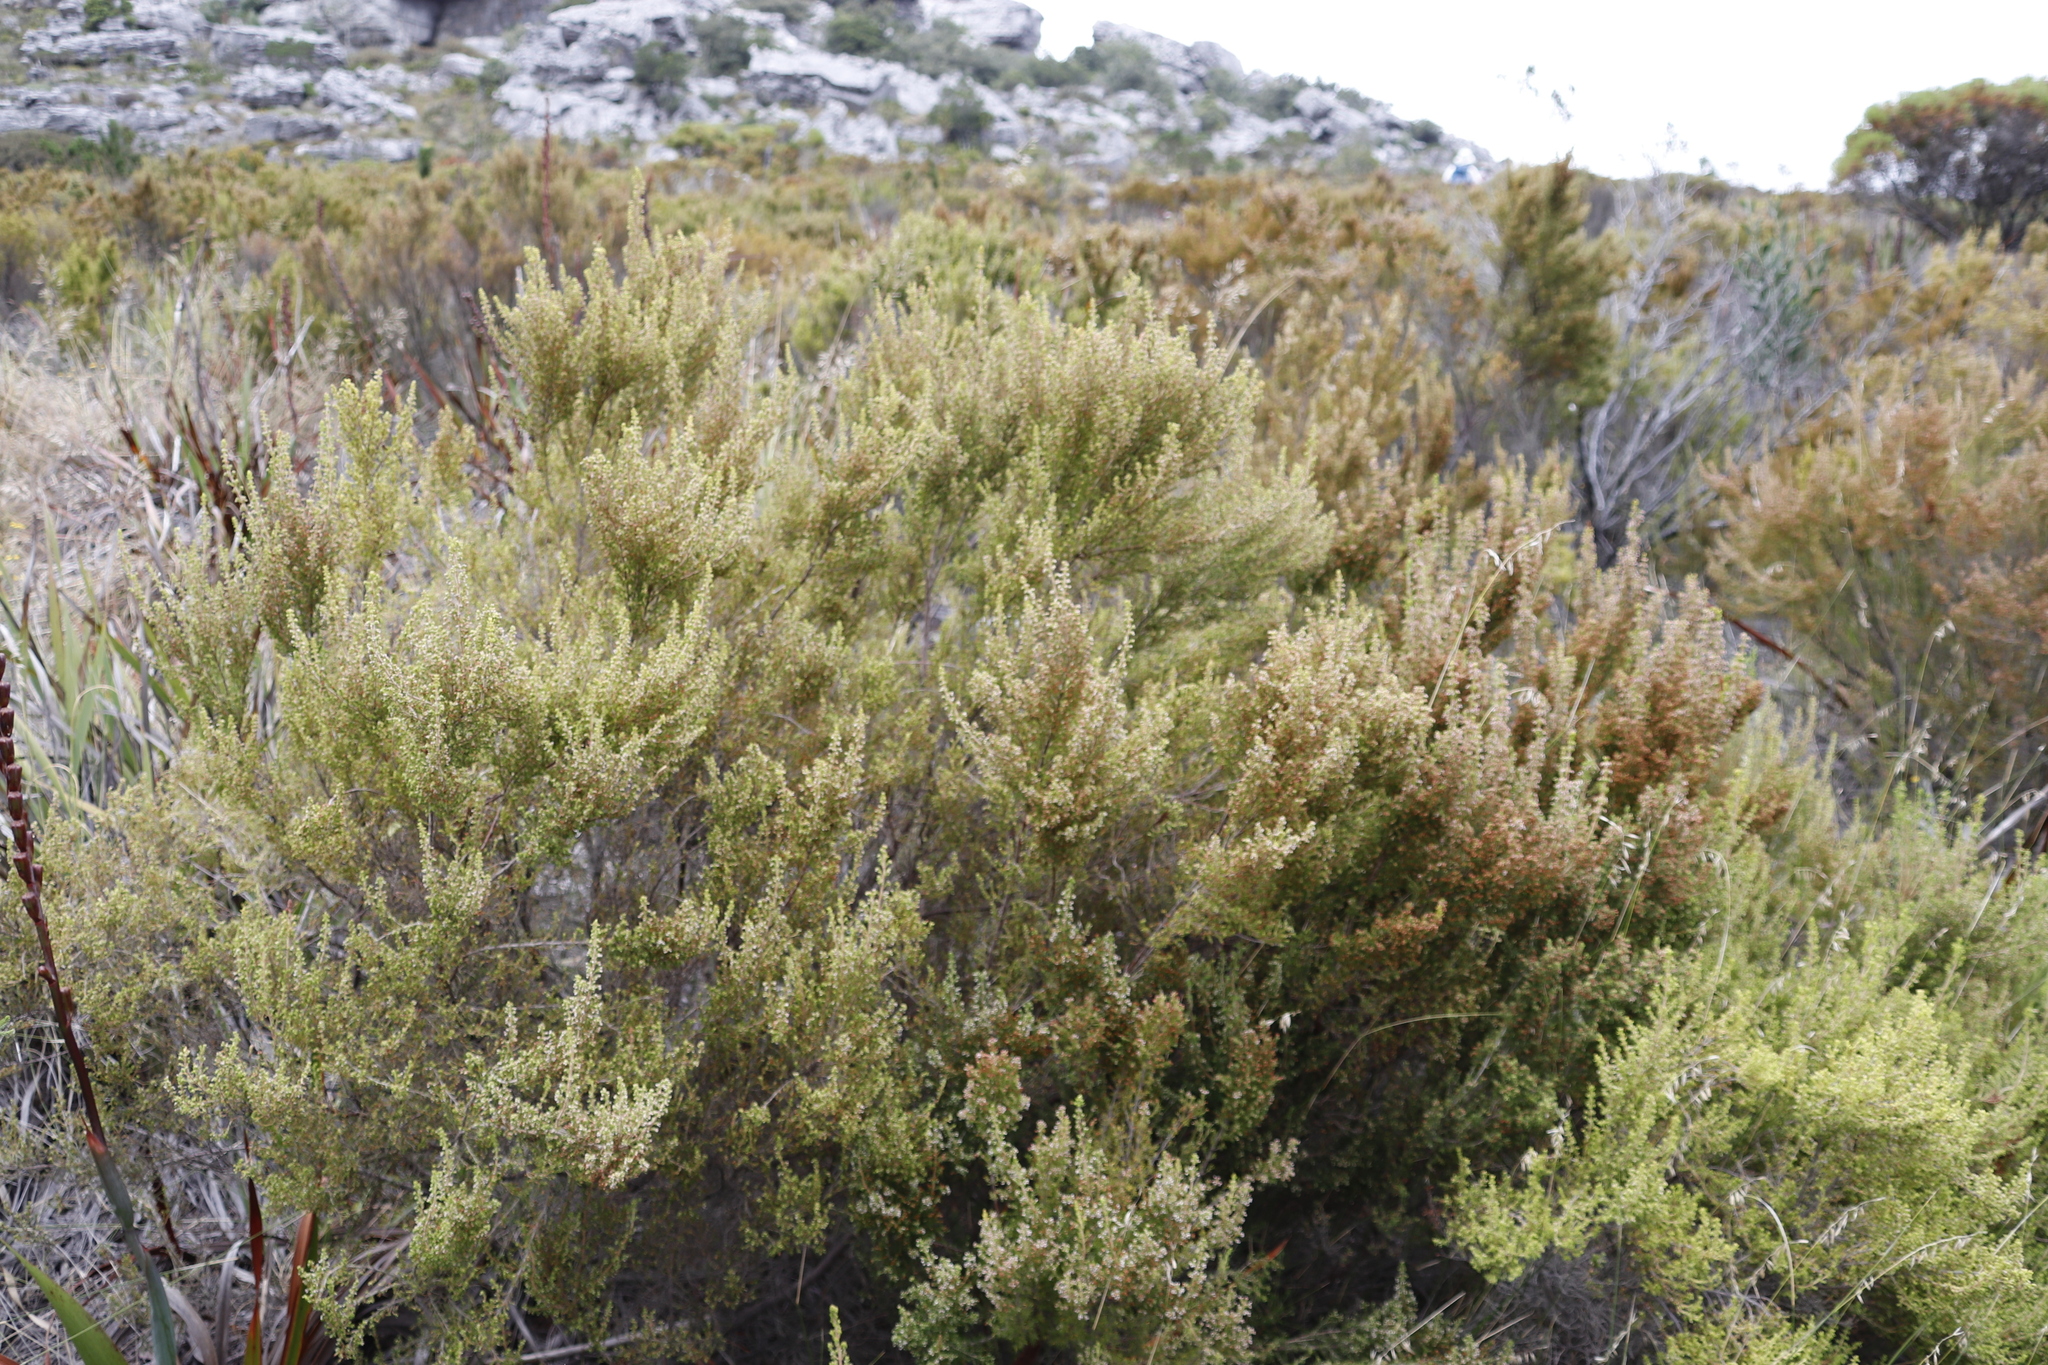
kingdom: Plantae
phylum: Tracheophyta
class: Magnoliopsida
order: Ericales
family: Ericaceae
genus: Erica
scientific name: Erica hispidula
